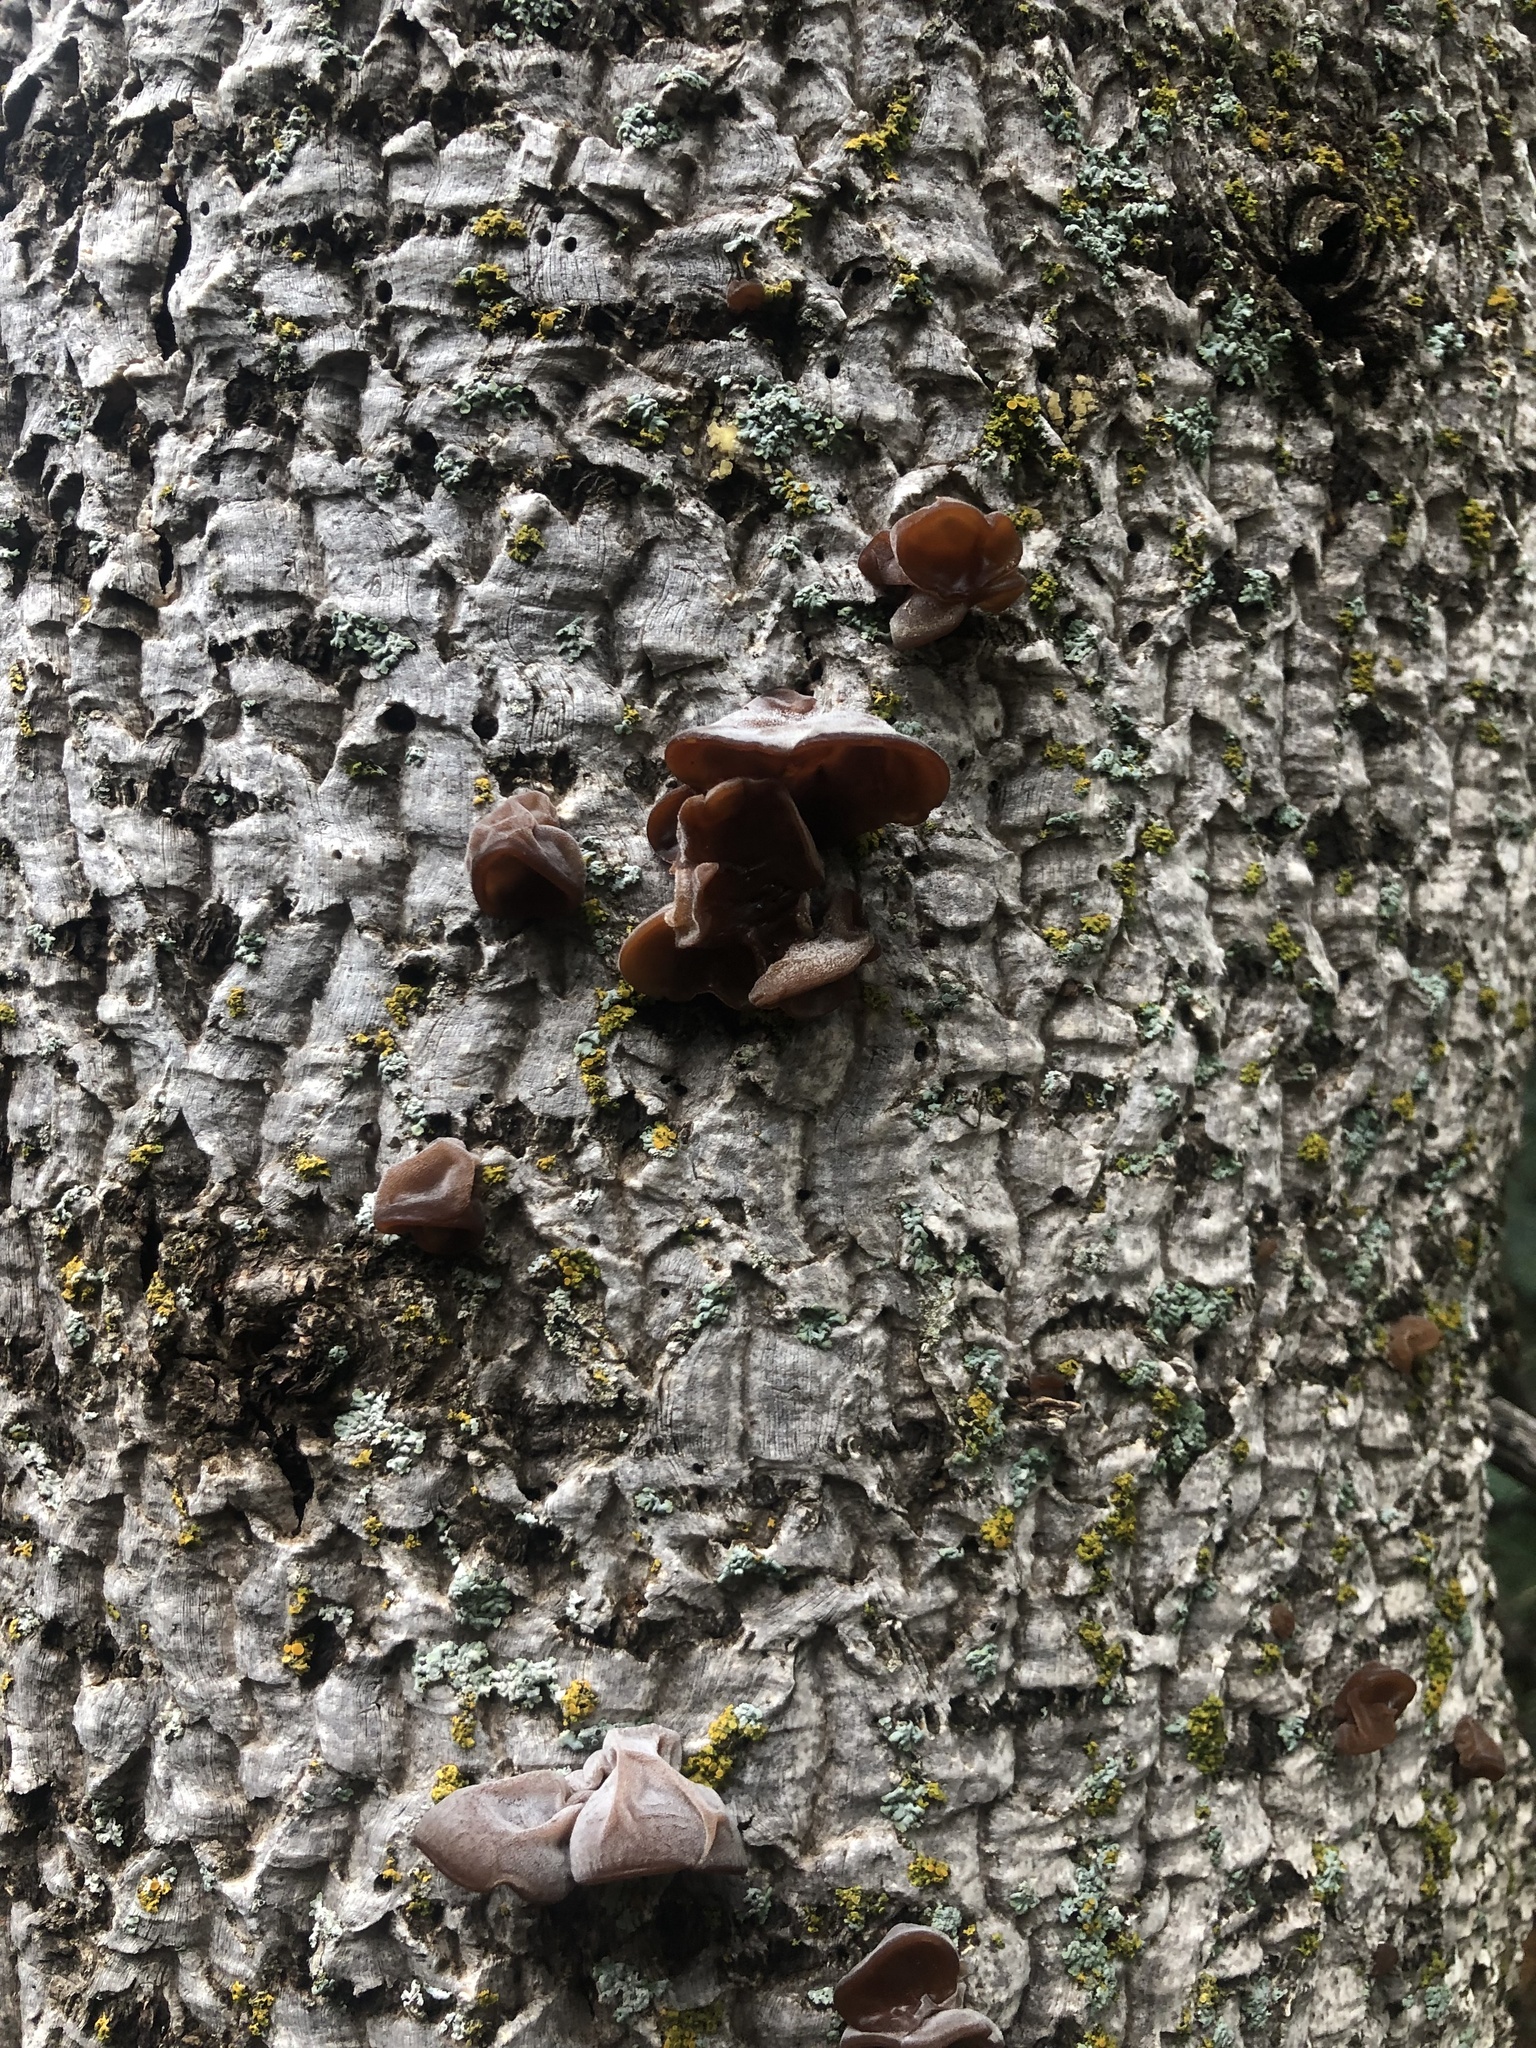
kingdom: Fungi
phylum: Basidiomycota
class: Agaricomycetes
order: Auriculariales
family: Auriculariaceae
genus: Auricularia
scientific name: Auricularia americana
